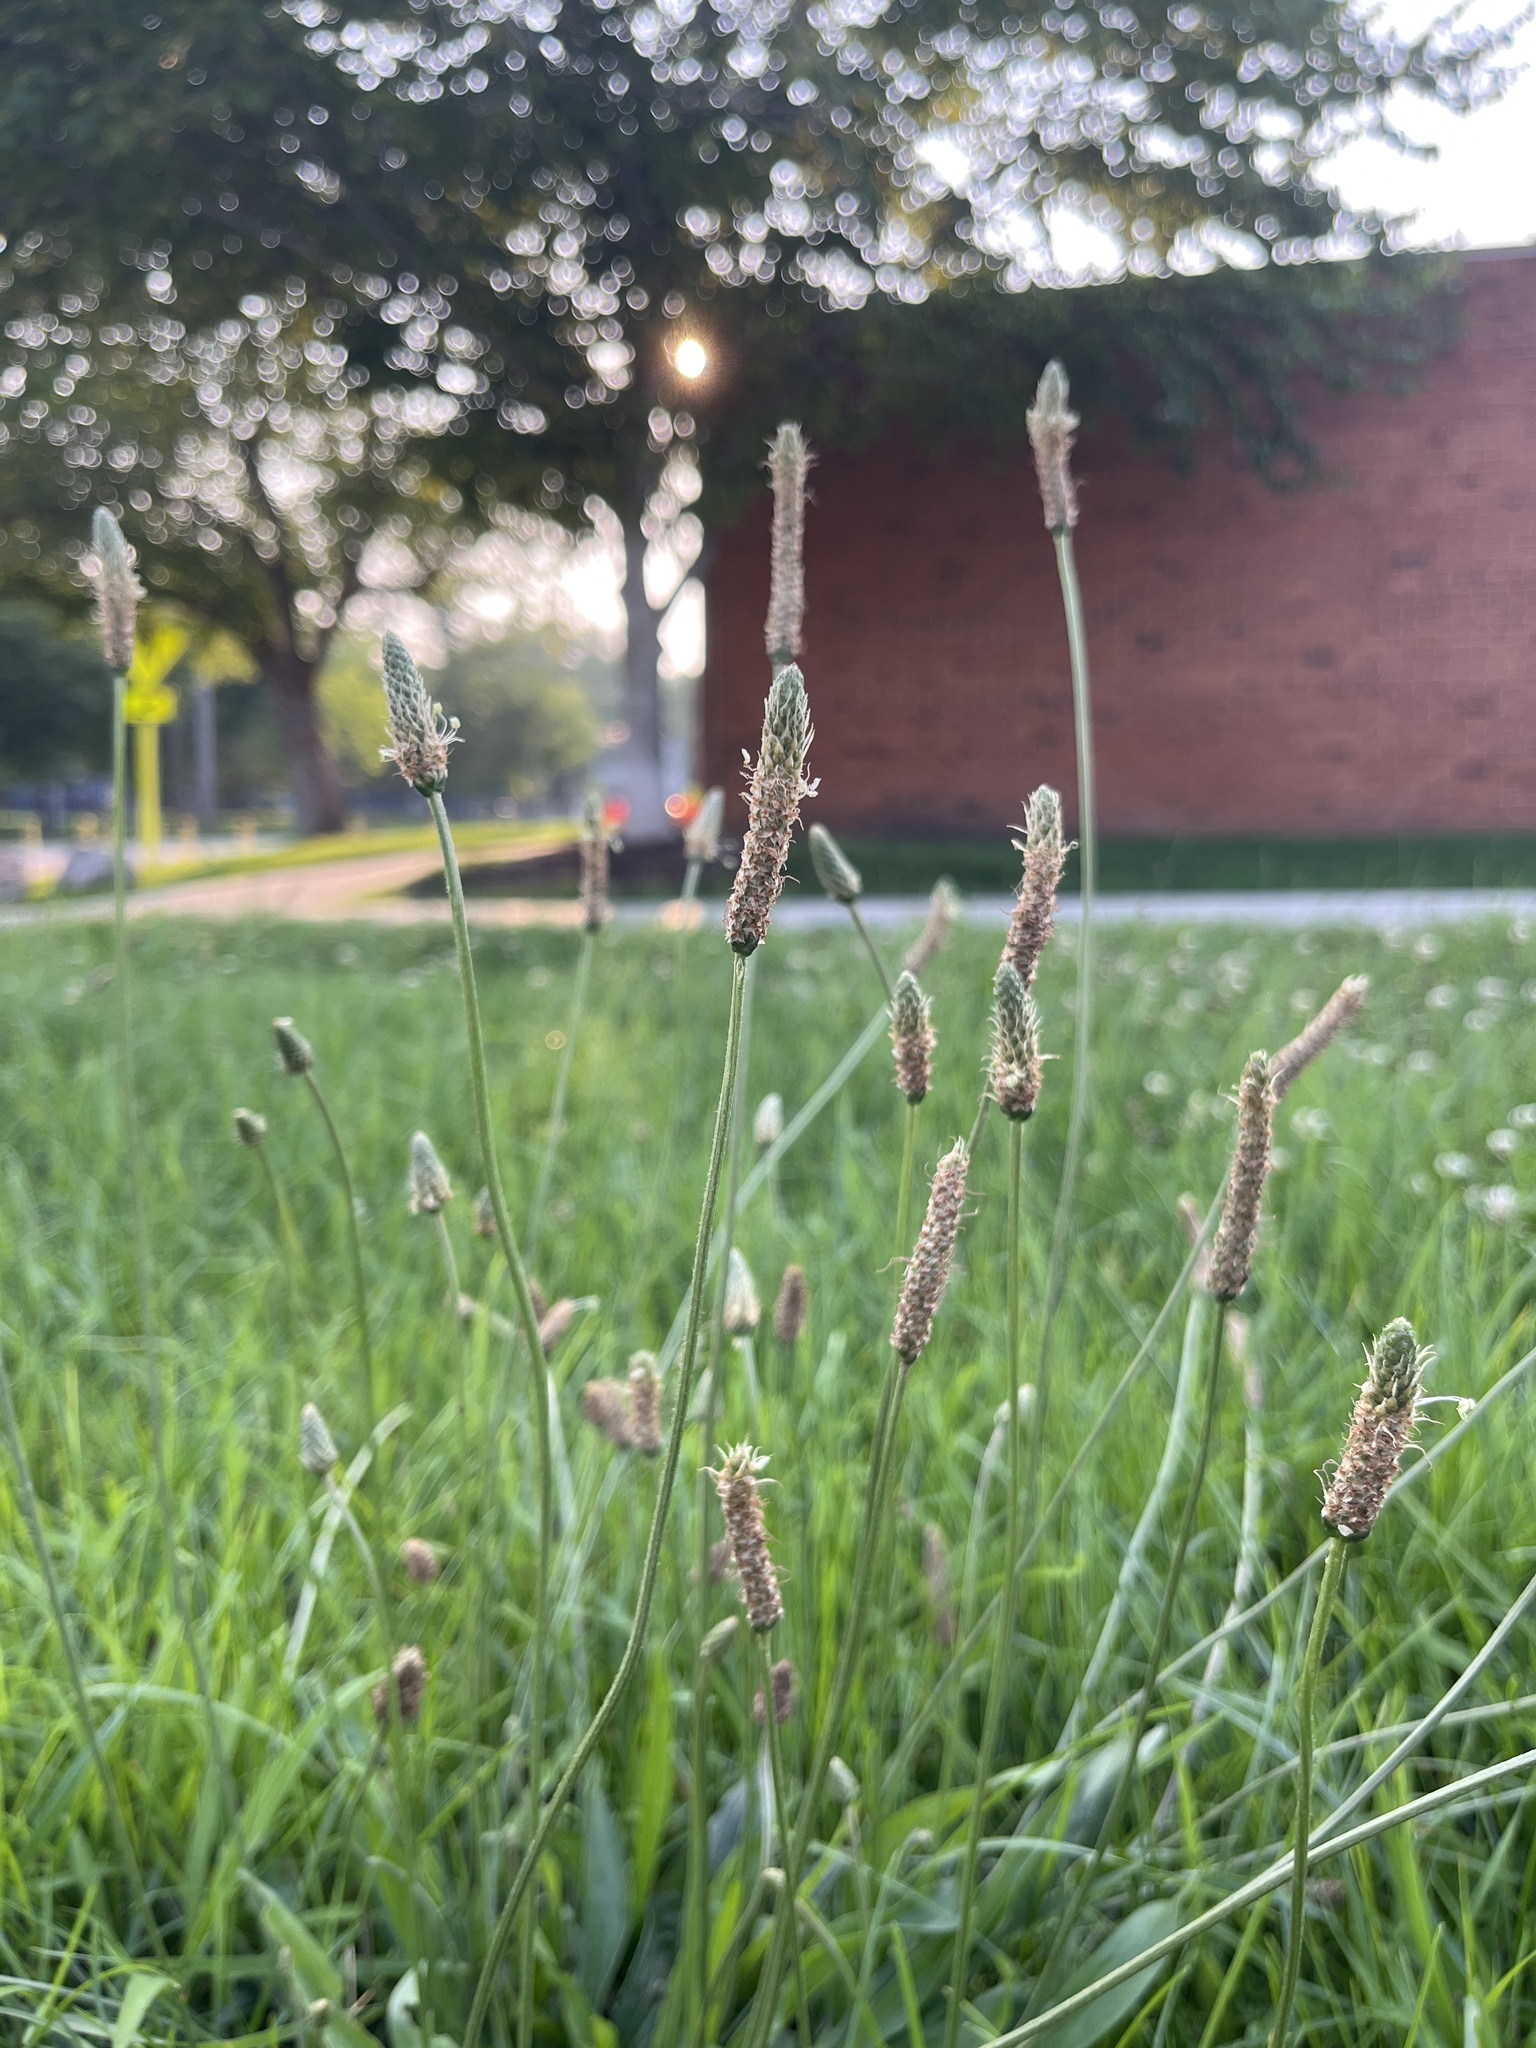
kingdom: Plantae
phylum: Tracheophyta
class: Magnoliopsida
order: Lamiales
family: Plantaginaceae
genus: Plantago
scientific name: Plantago lanceolata
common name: Ribwort plantain
